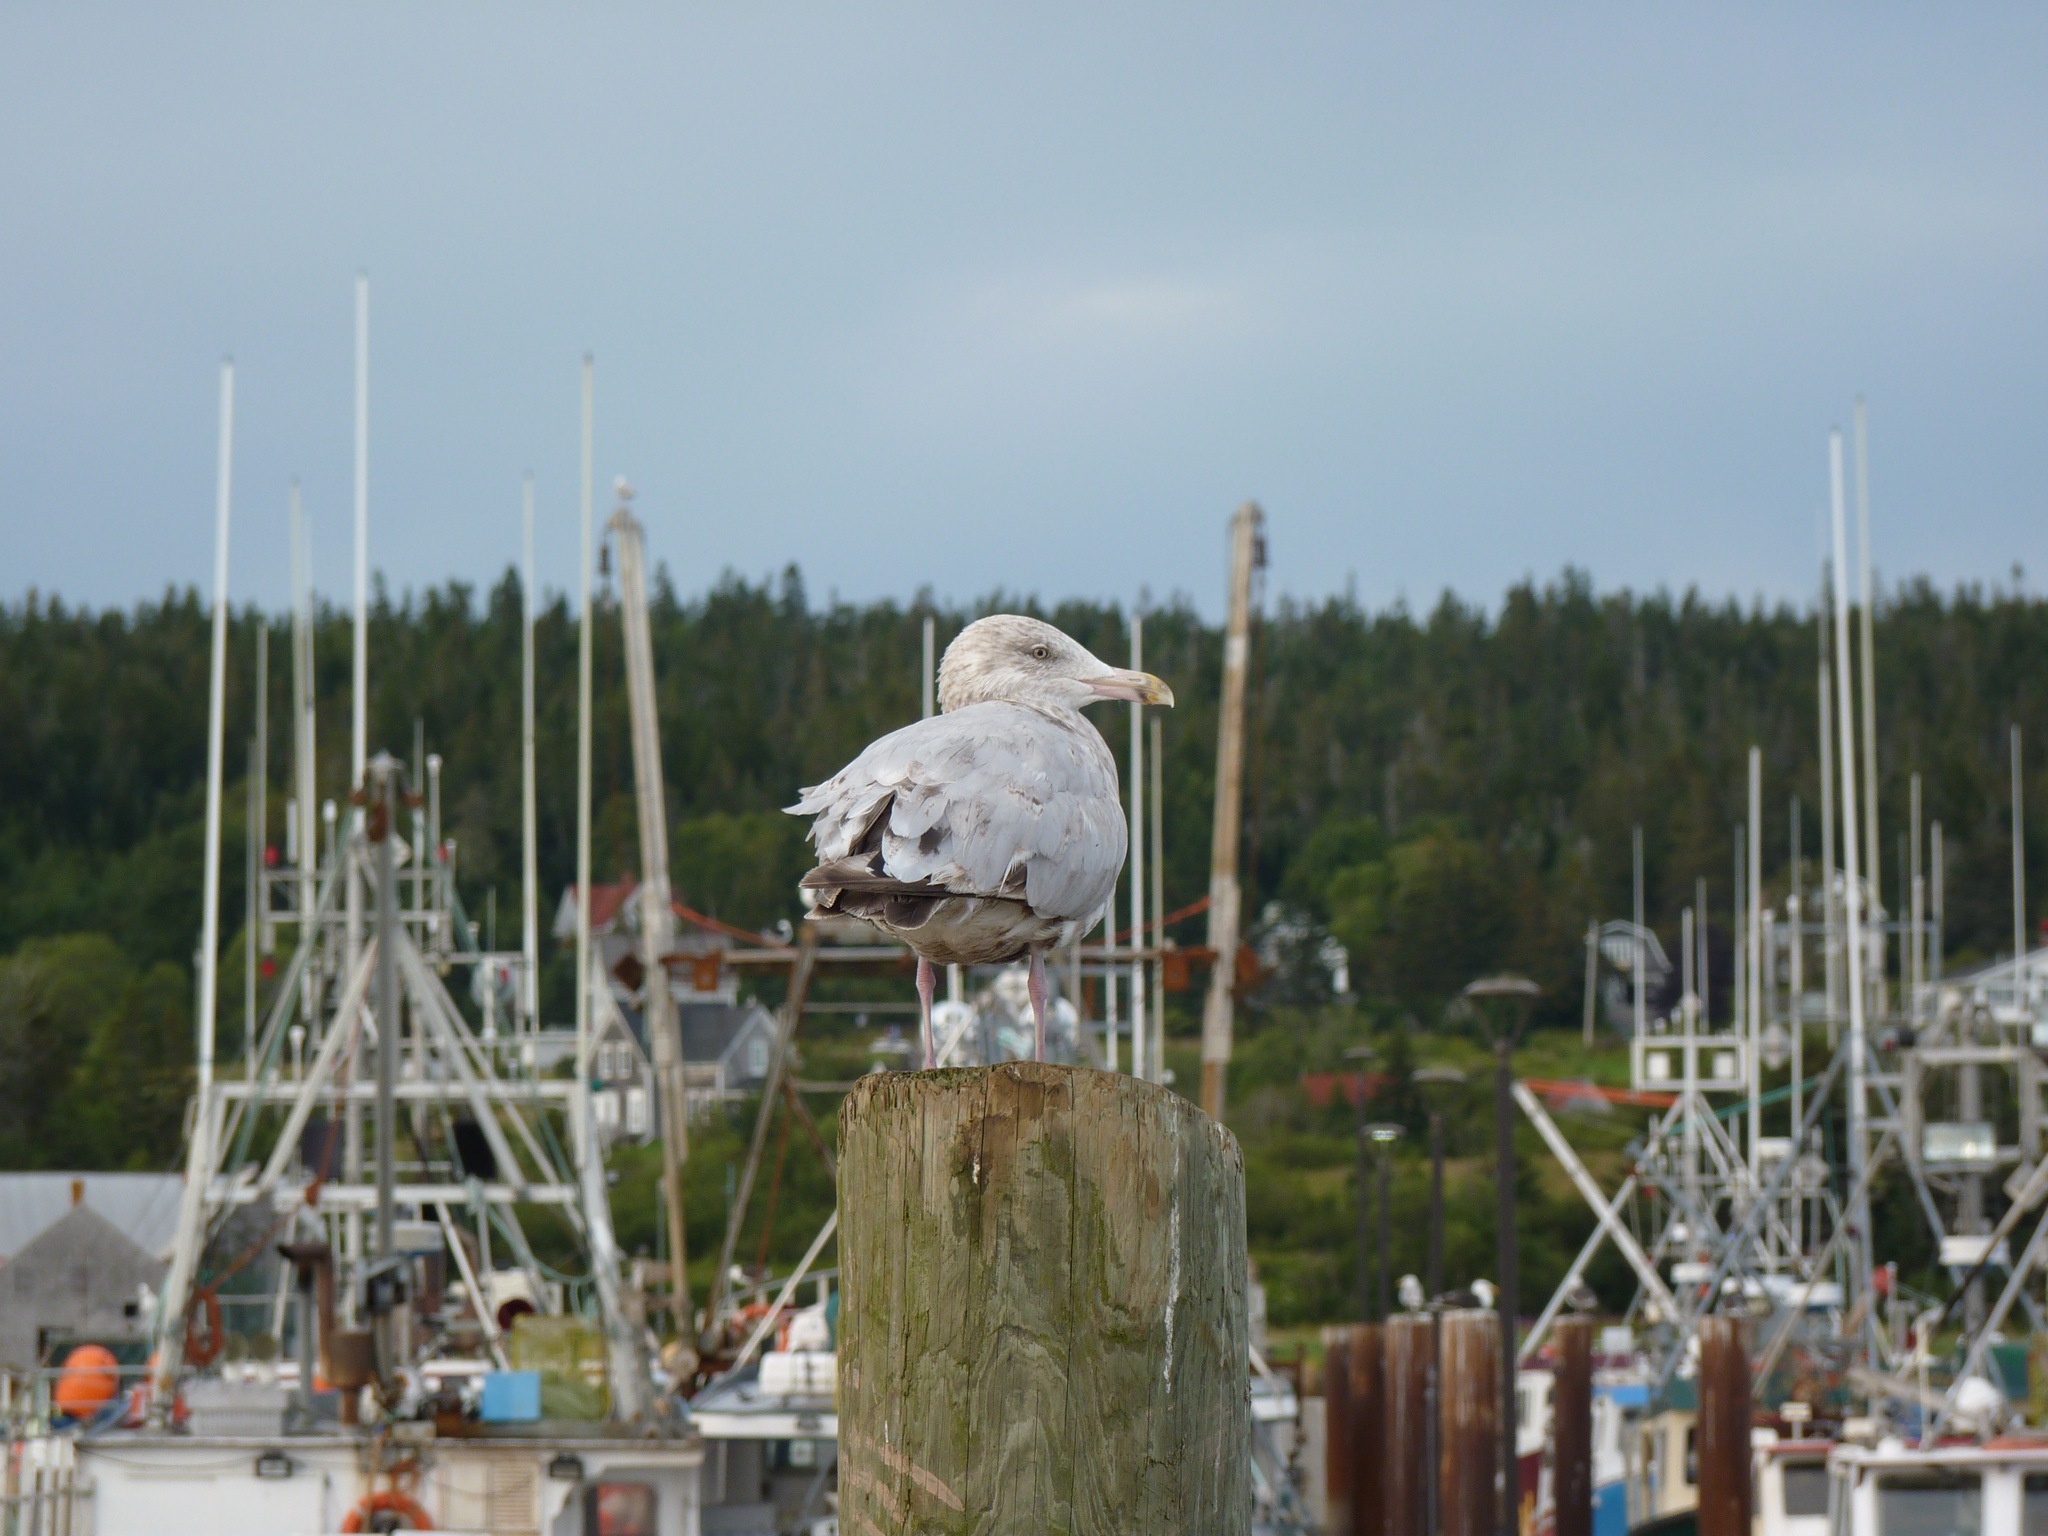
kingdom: Animalia
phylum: Chordata
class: Aves
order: Charadriiformes
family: Laridae
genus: Larus
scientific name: Larus argentatus
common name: Herring gull
